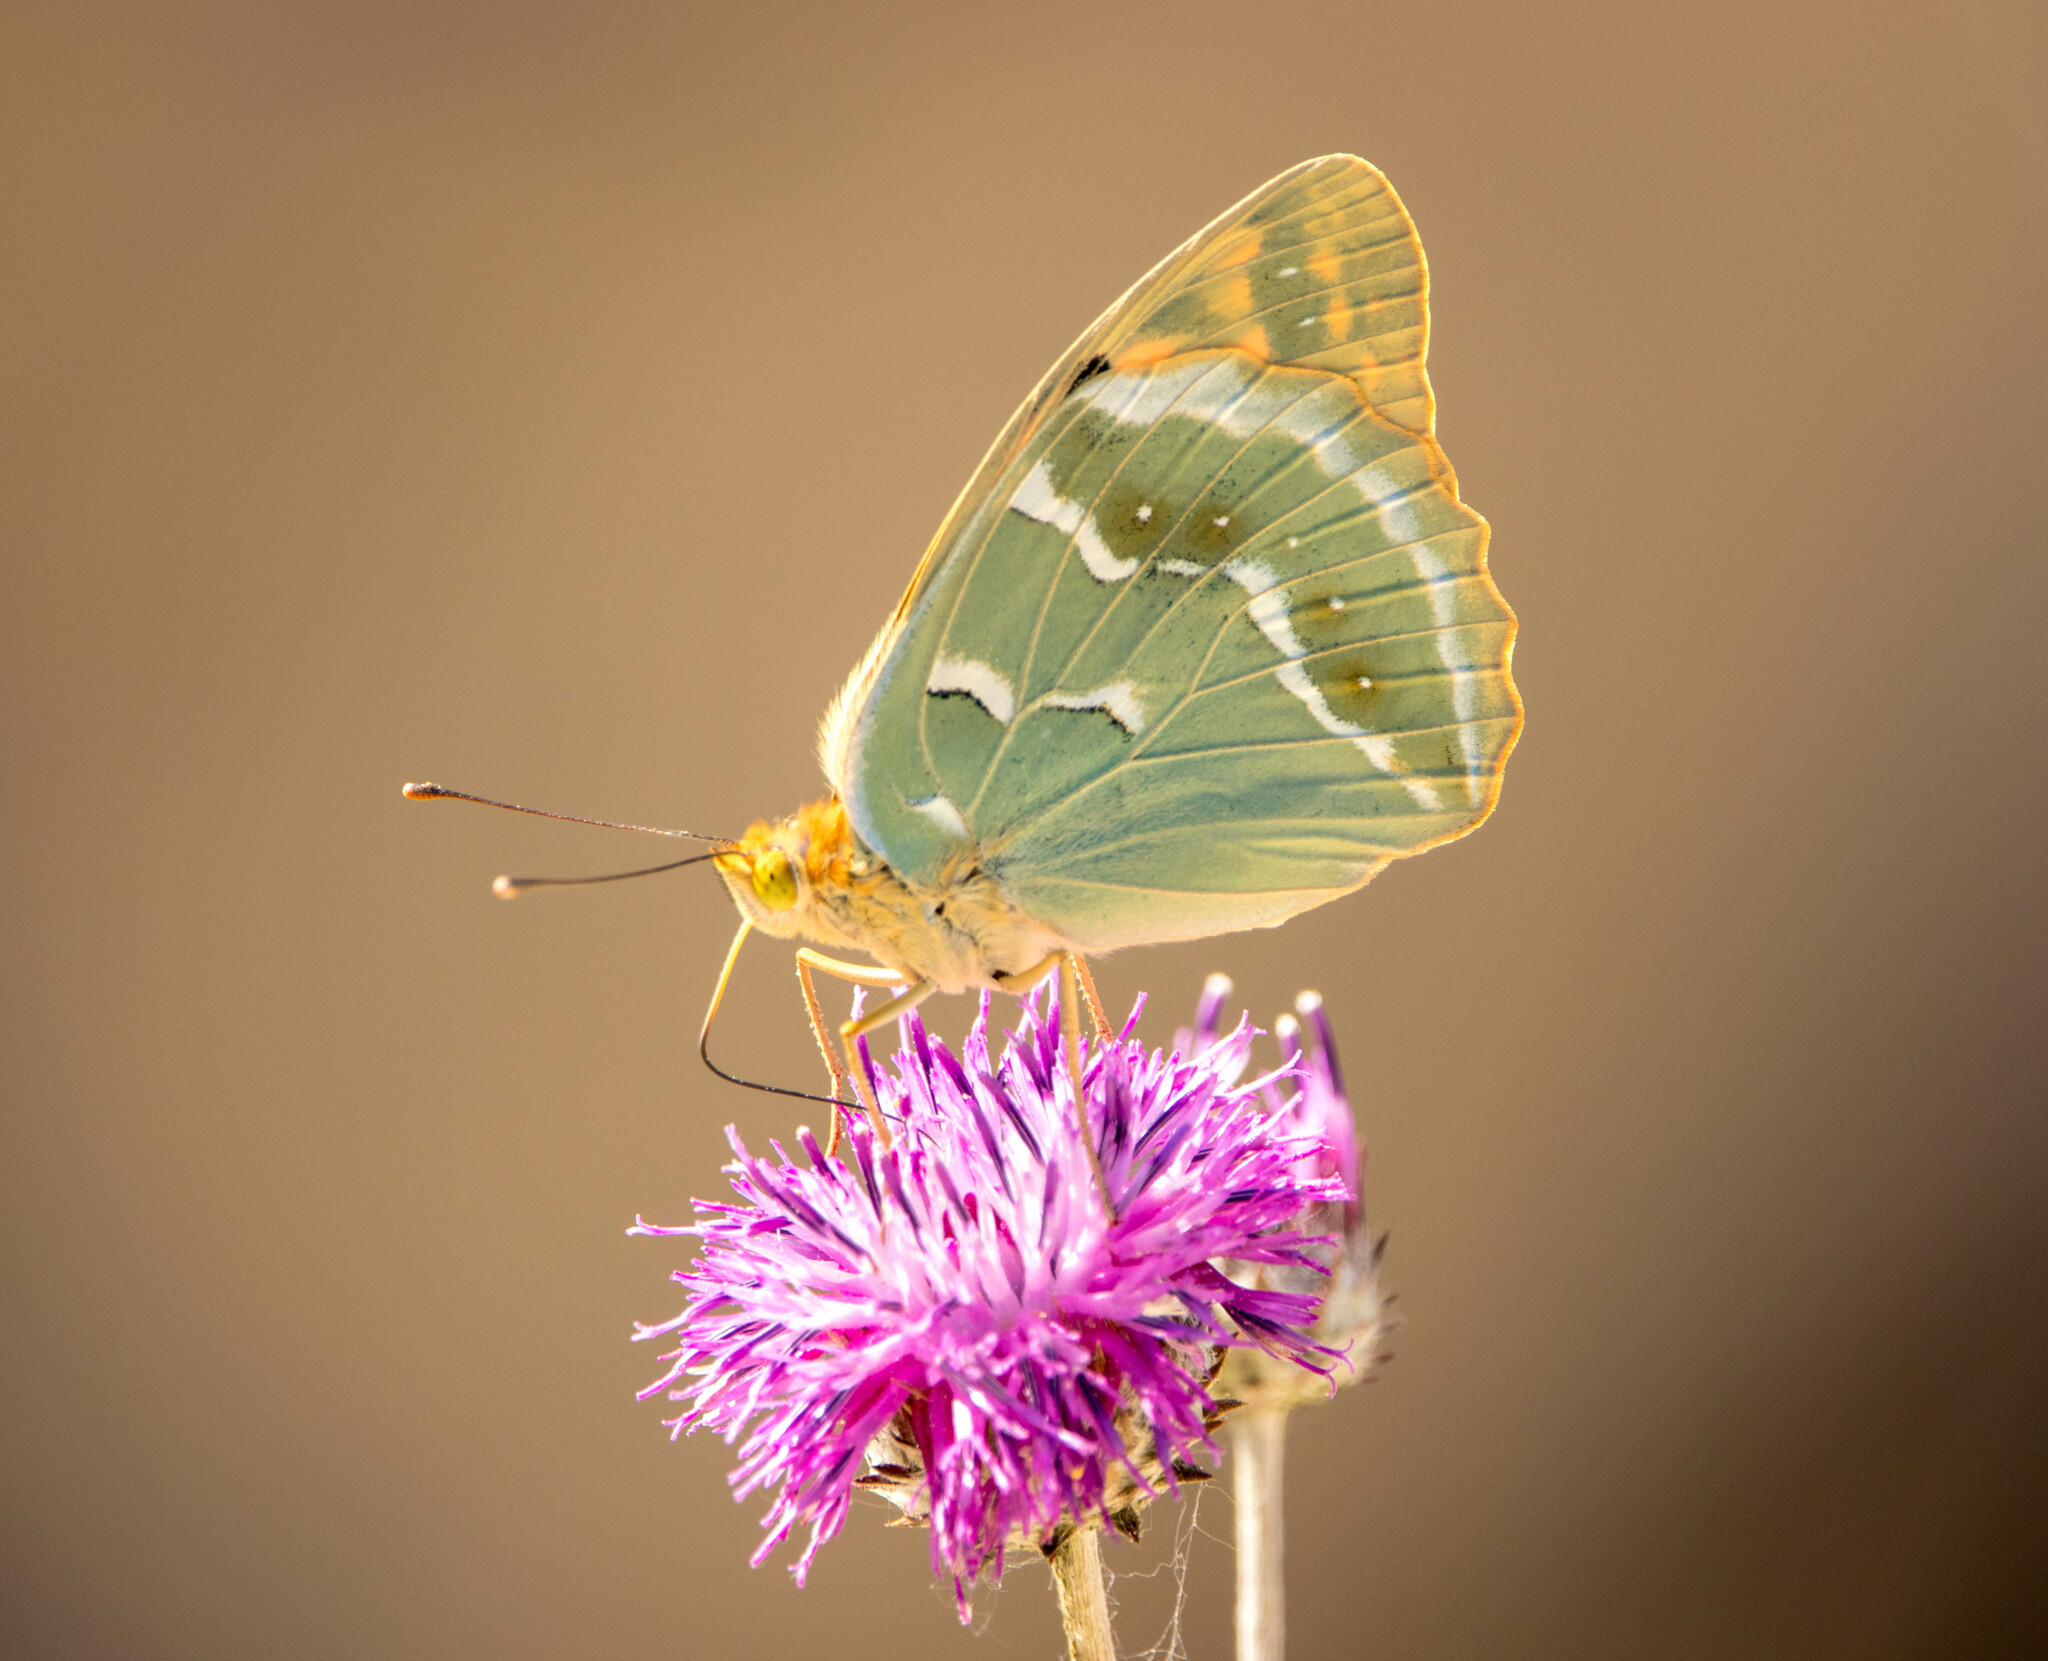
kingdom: Animalia
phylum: Arthropoda
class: Insecta
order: Lepidoptera
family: Nymphalidae
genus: Damora
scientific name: Damora pandora
